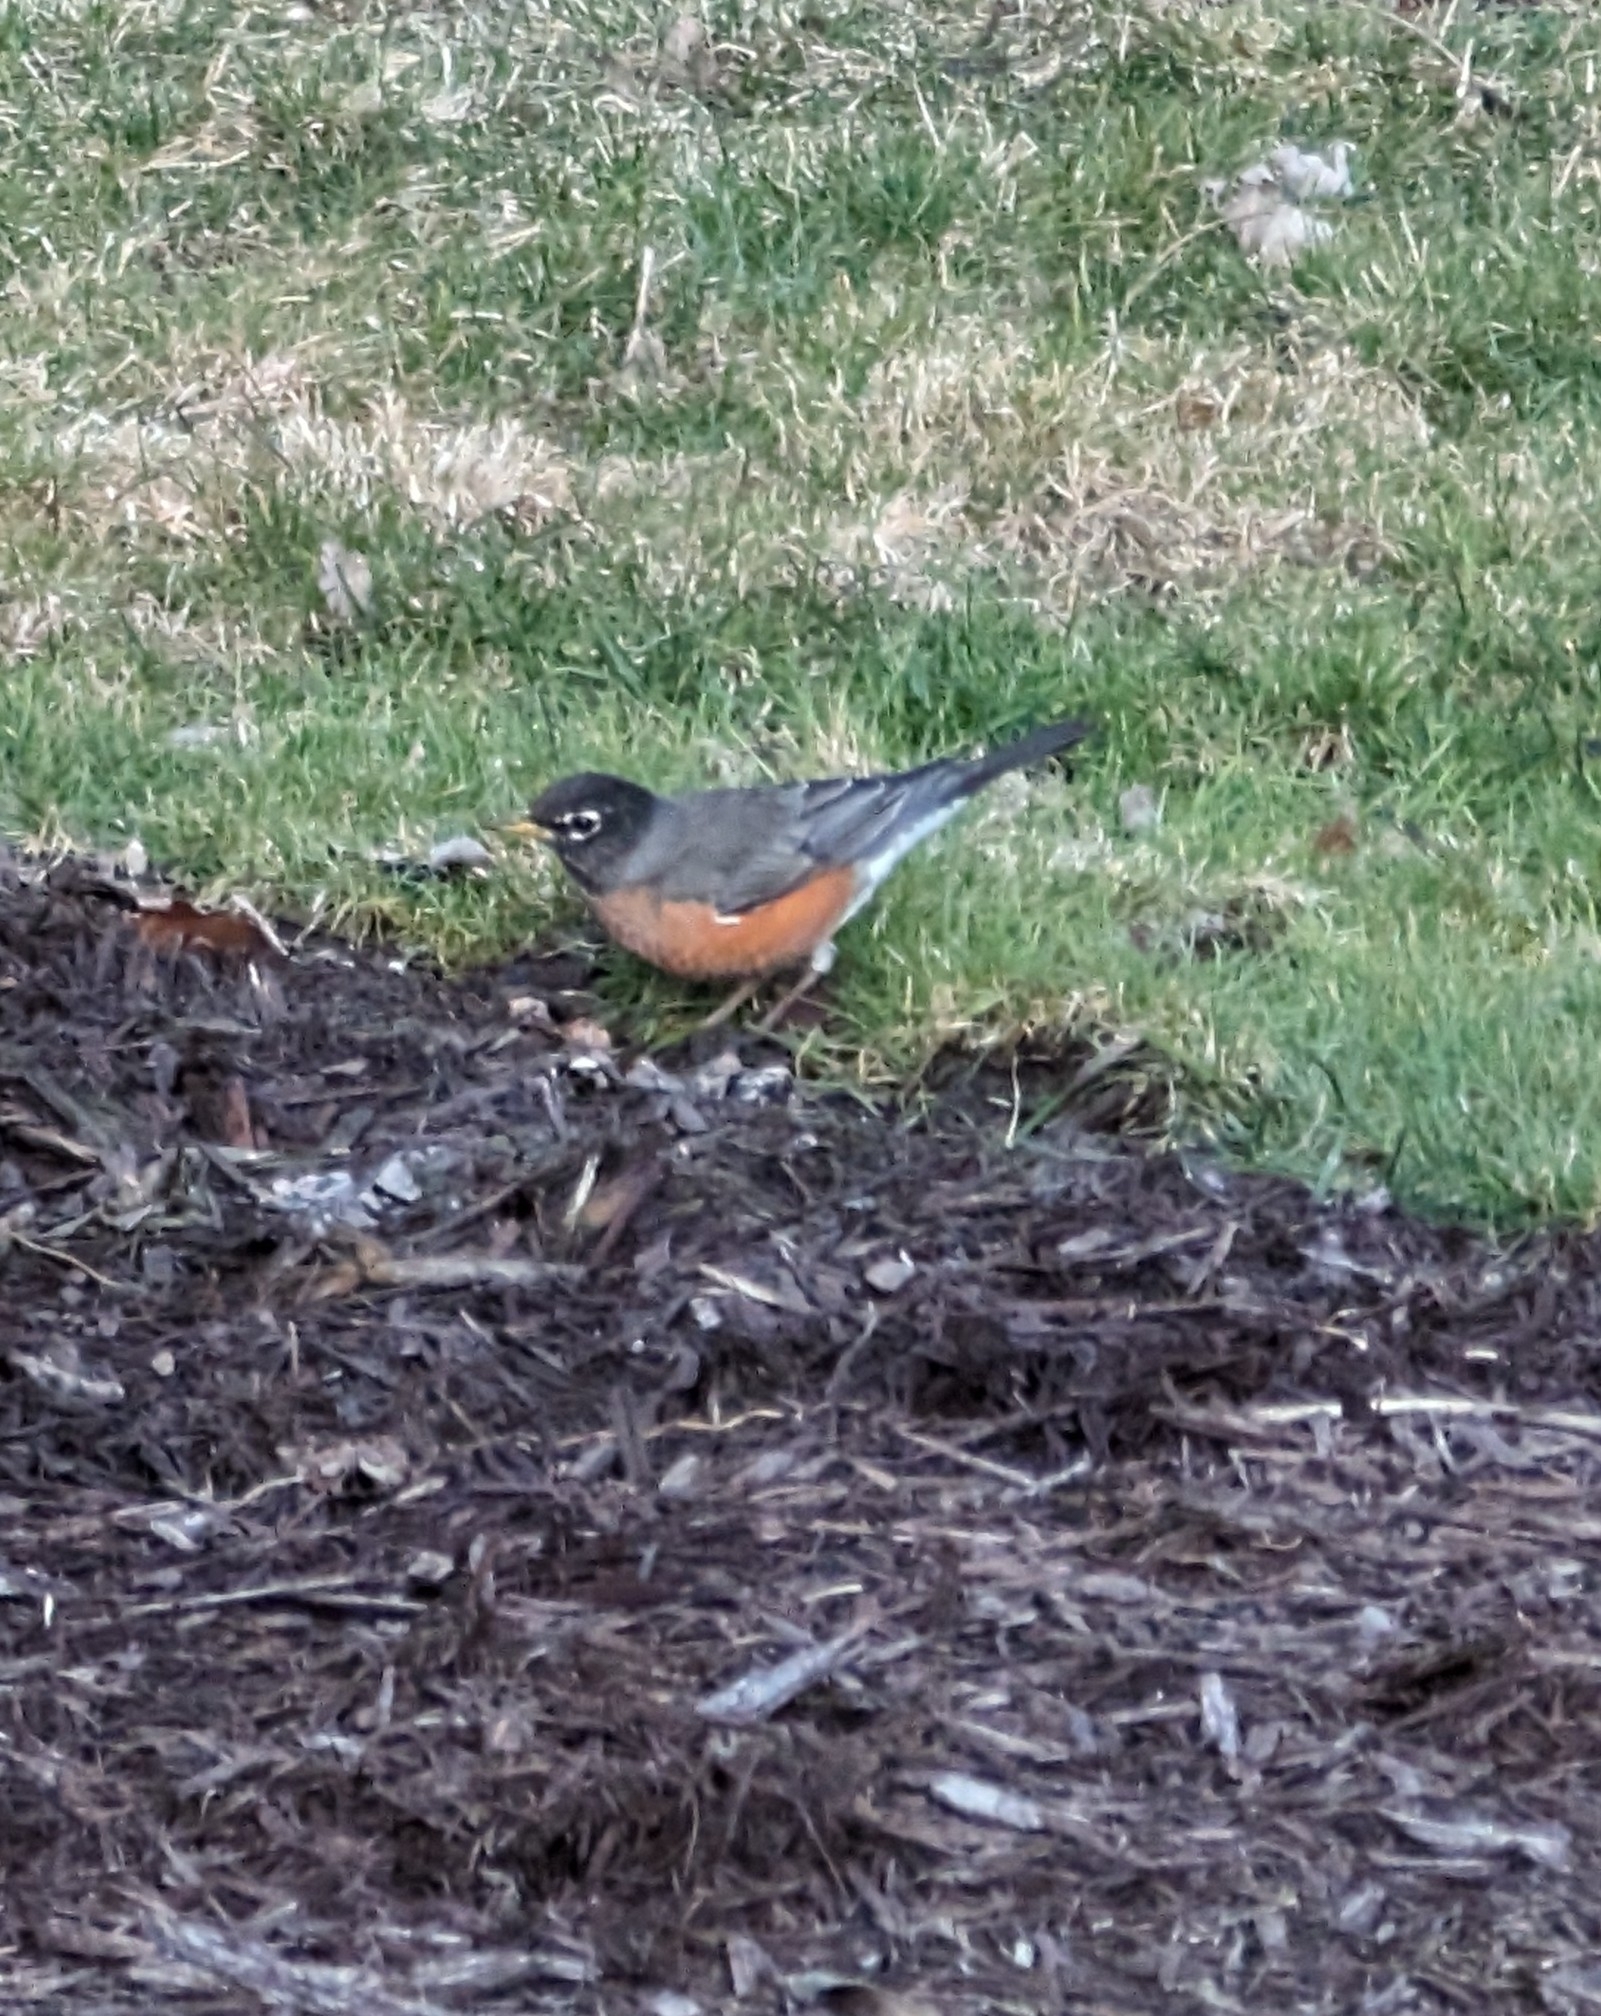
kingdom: Animalia
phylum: Chordata
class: Aves
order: Passeriformes
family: Turdidae
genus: Turdus
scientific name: Turdus migratorius
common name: American robin
